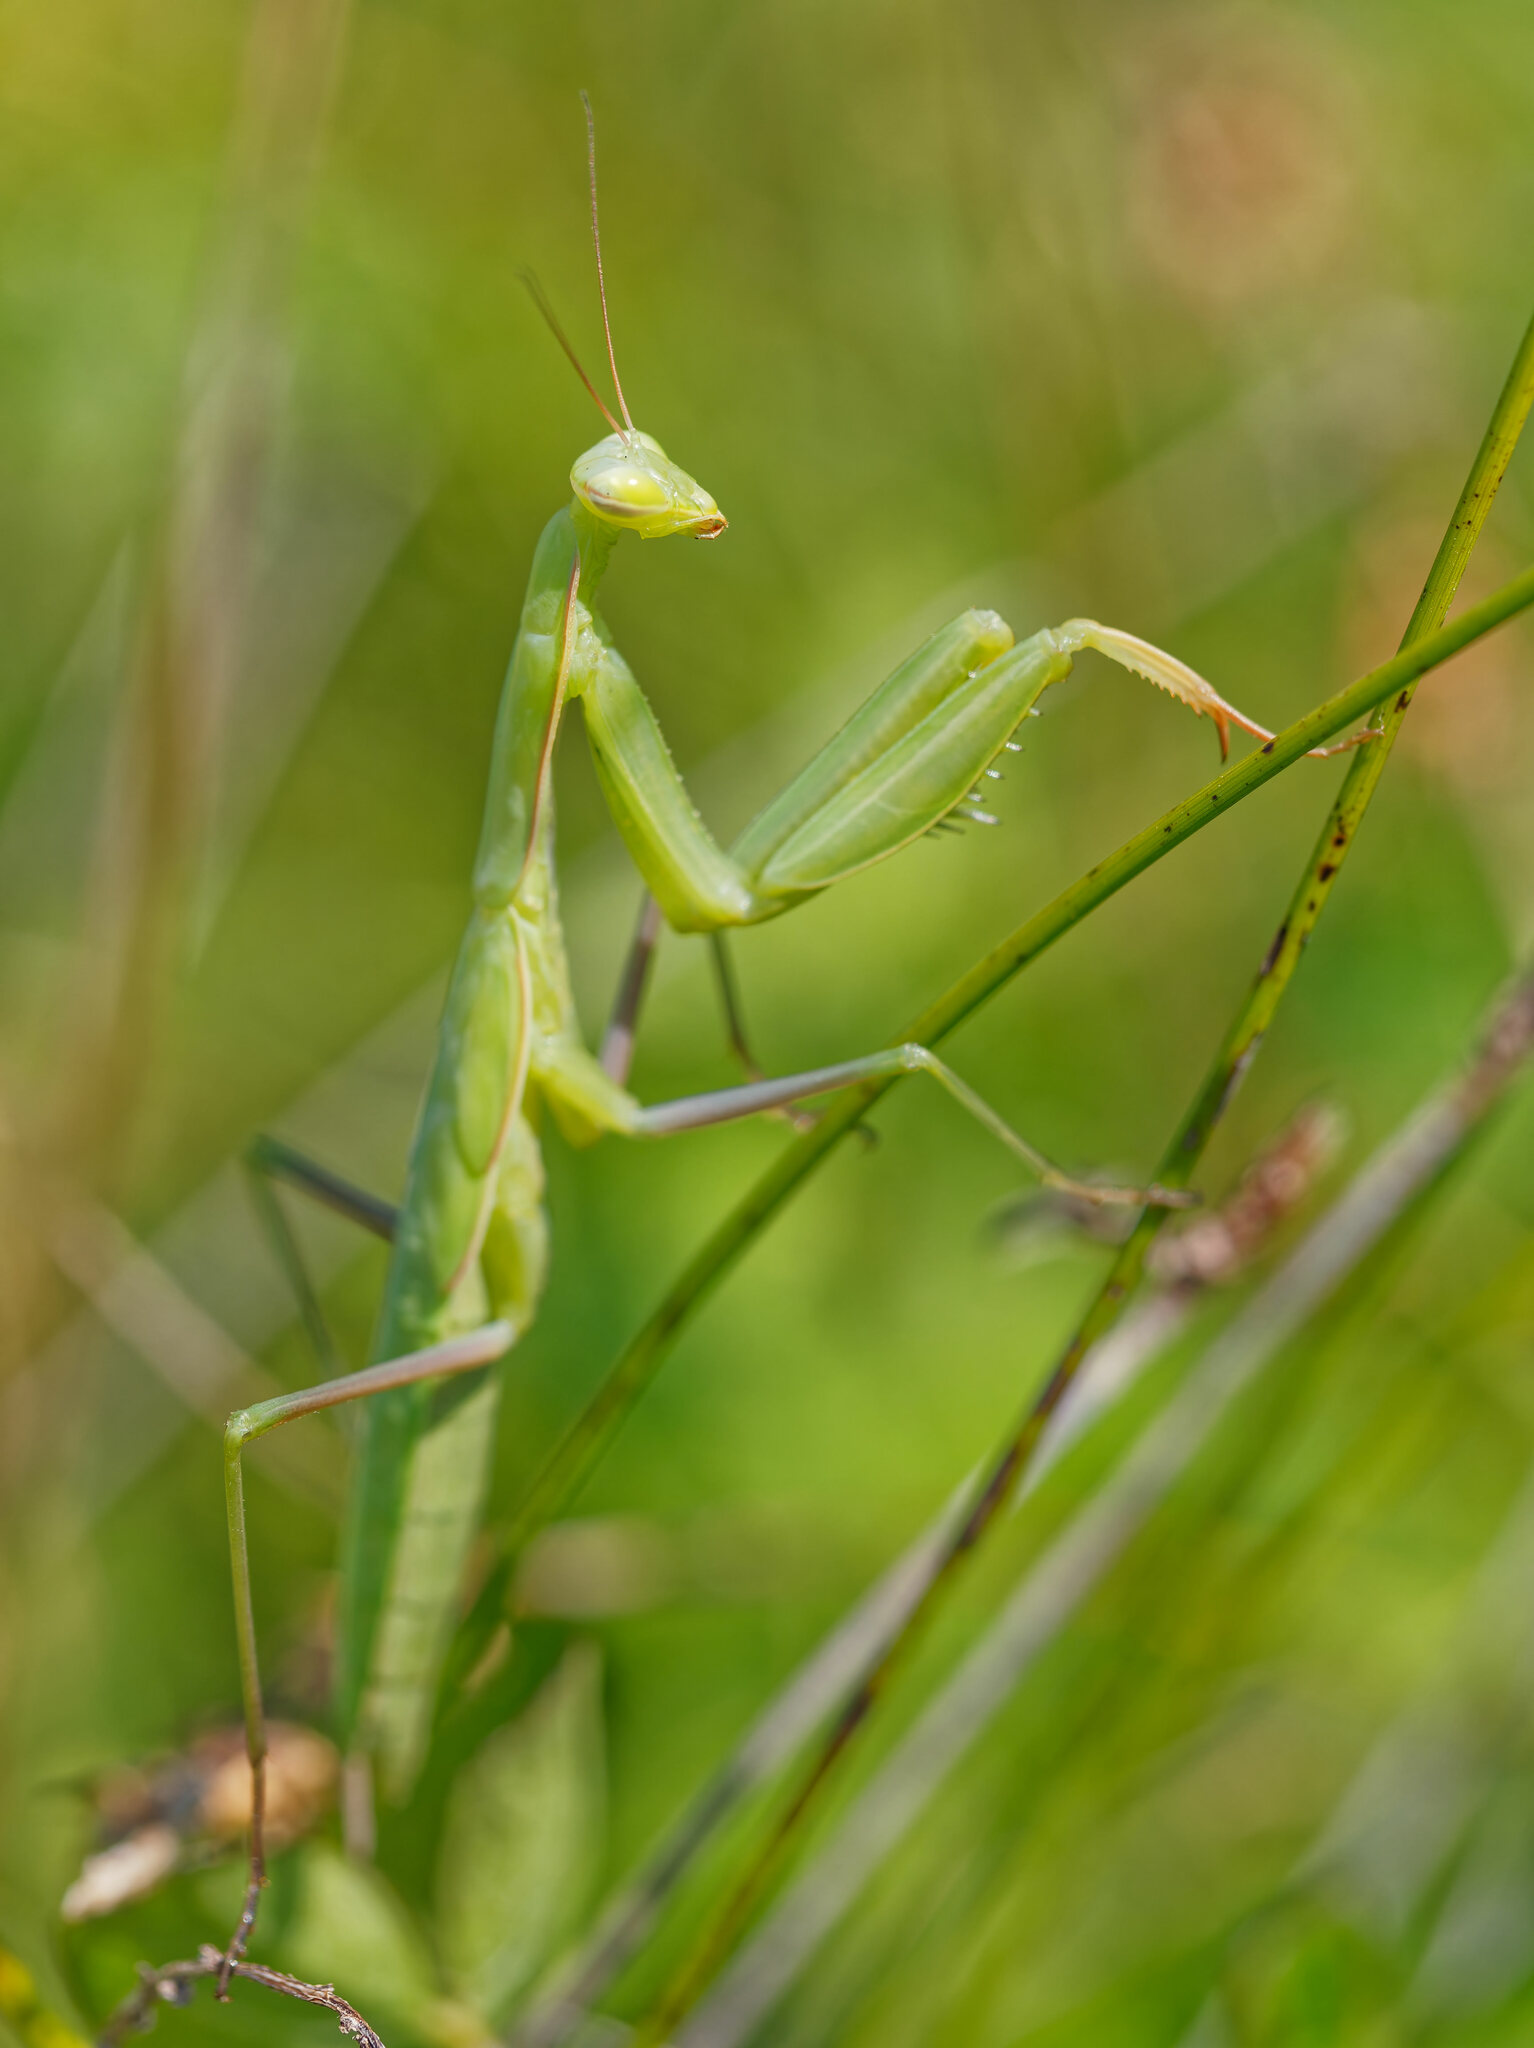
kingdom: Animalia
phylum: Arthropoda
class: Insecta
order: Mantodea
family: Mantidae
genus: Mantis
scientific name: Mantis religiosa
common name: Praying mantis
